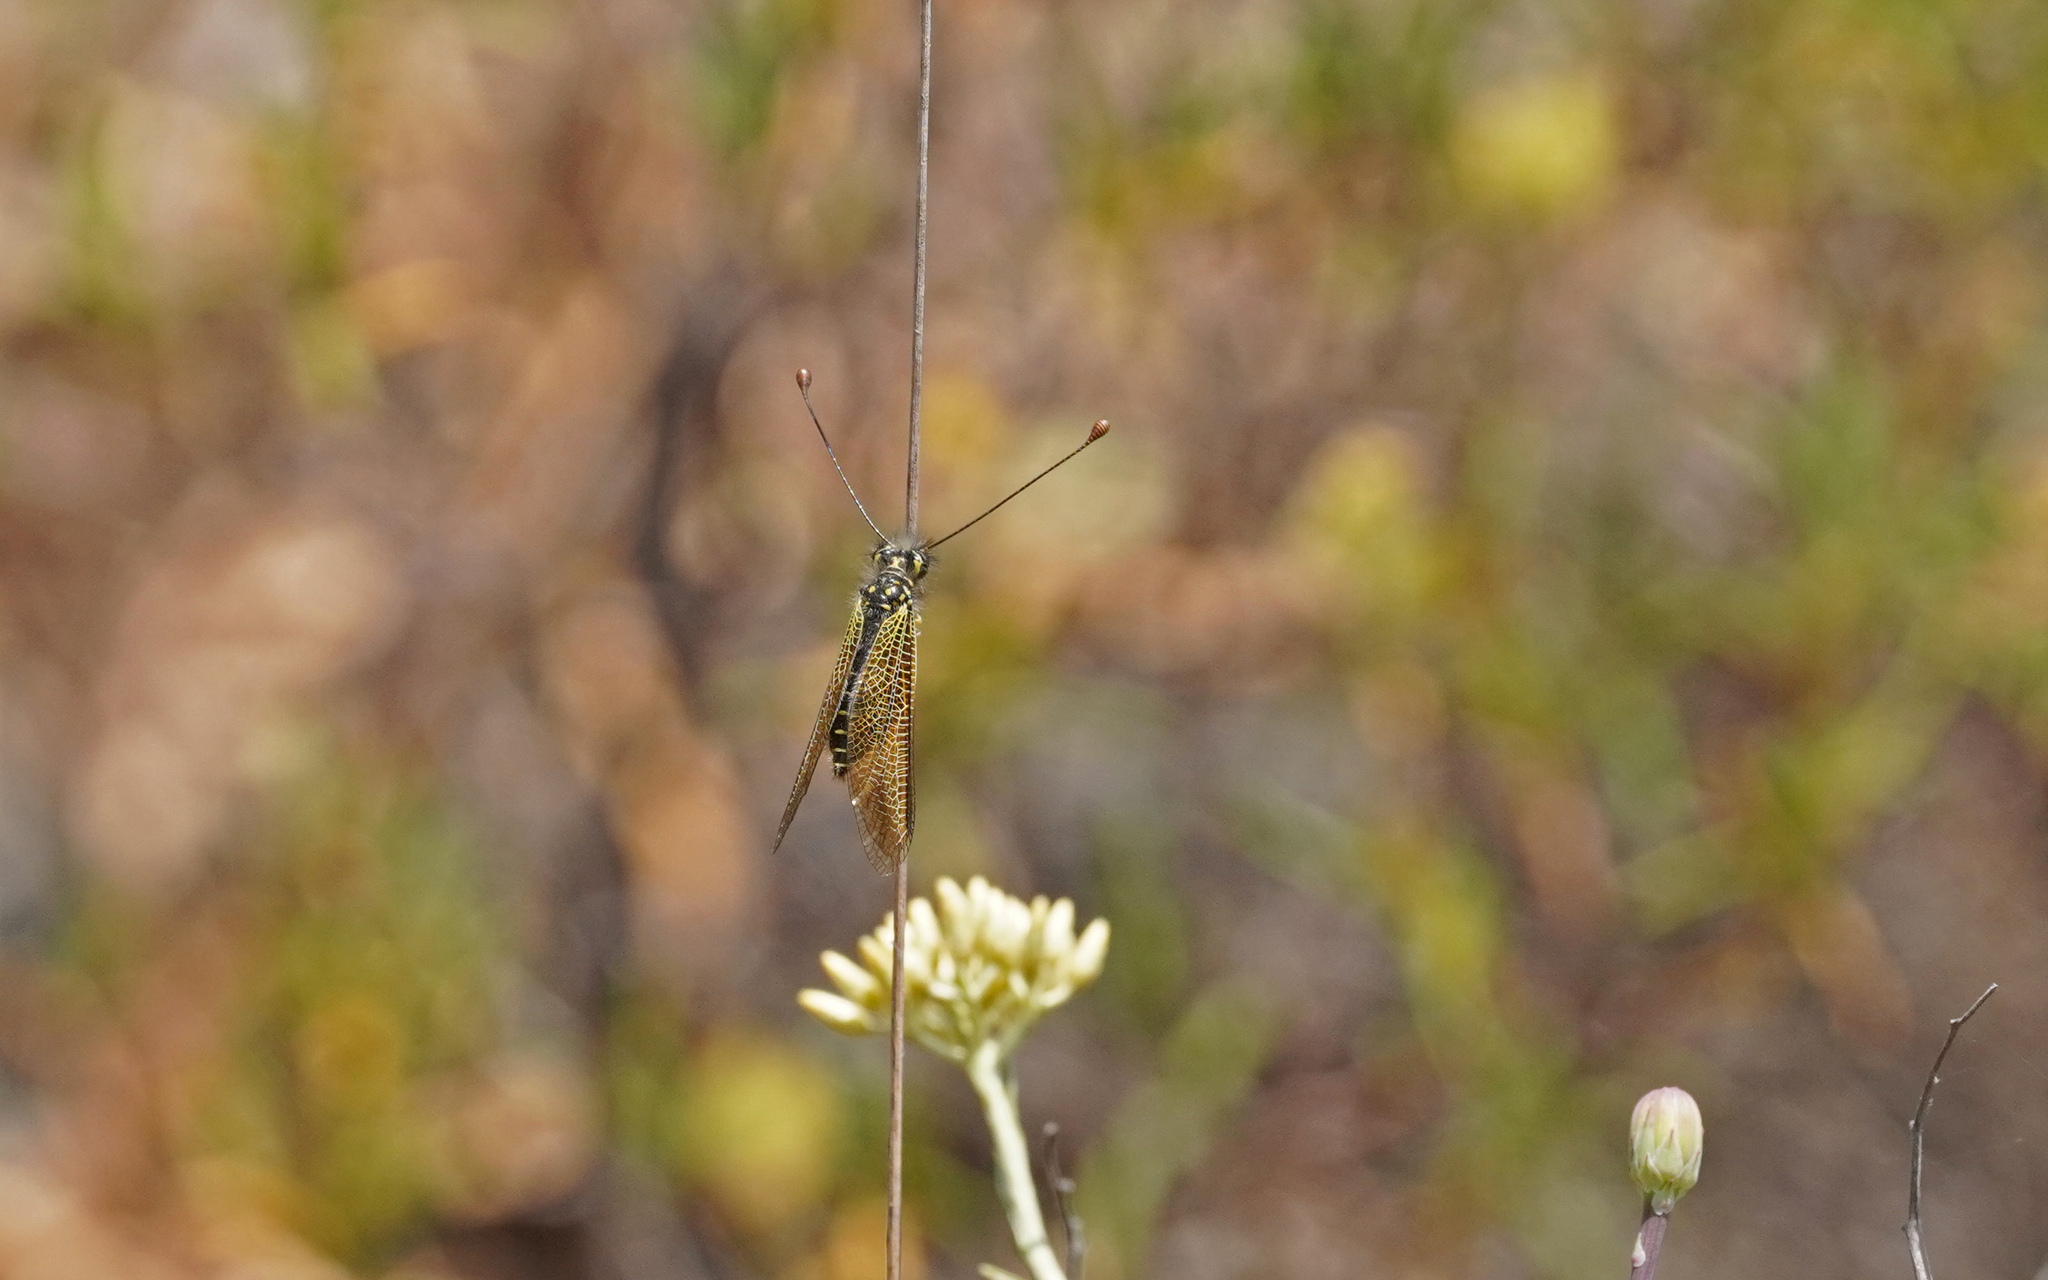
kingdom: Animalia
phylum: Arthropoda
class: Insecta
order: Neuroptera
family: Ascalaphidae
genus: Libelloides
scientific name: Libelloides ictericus
